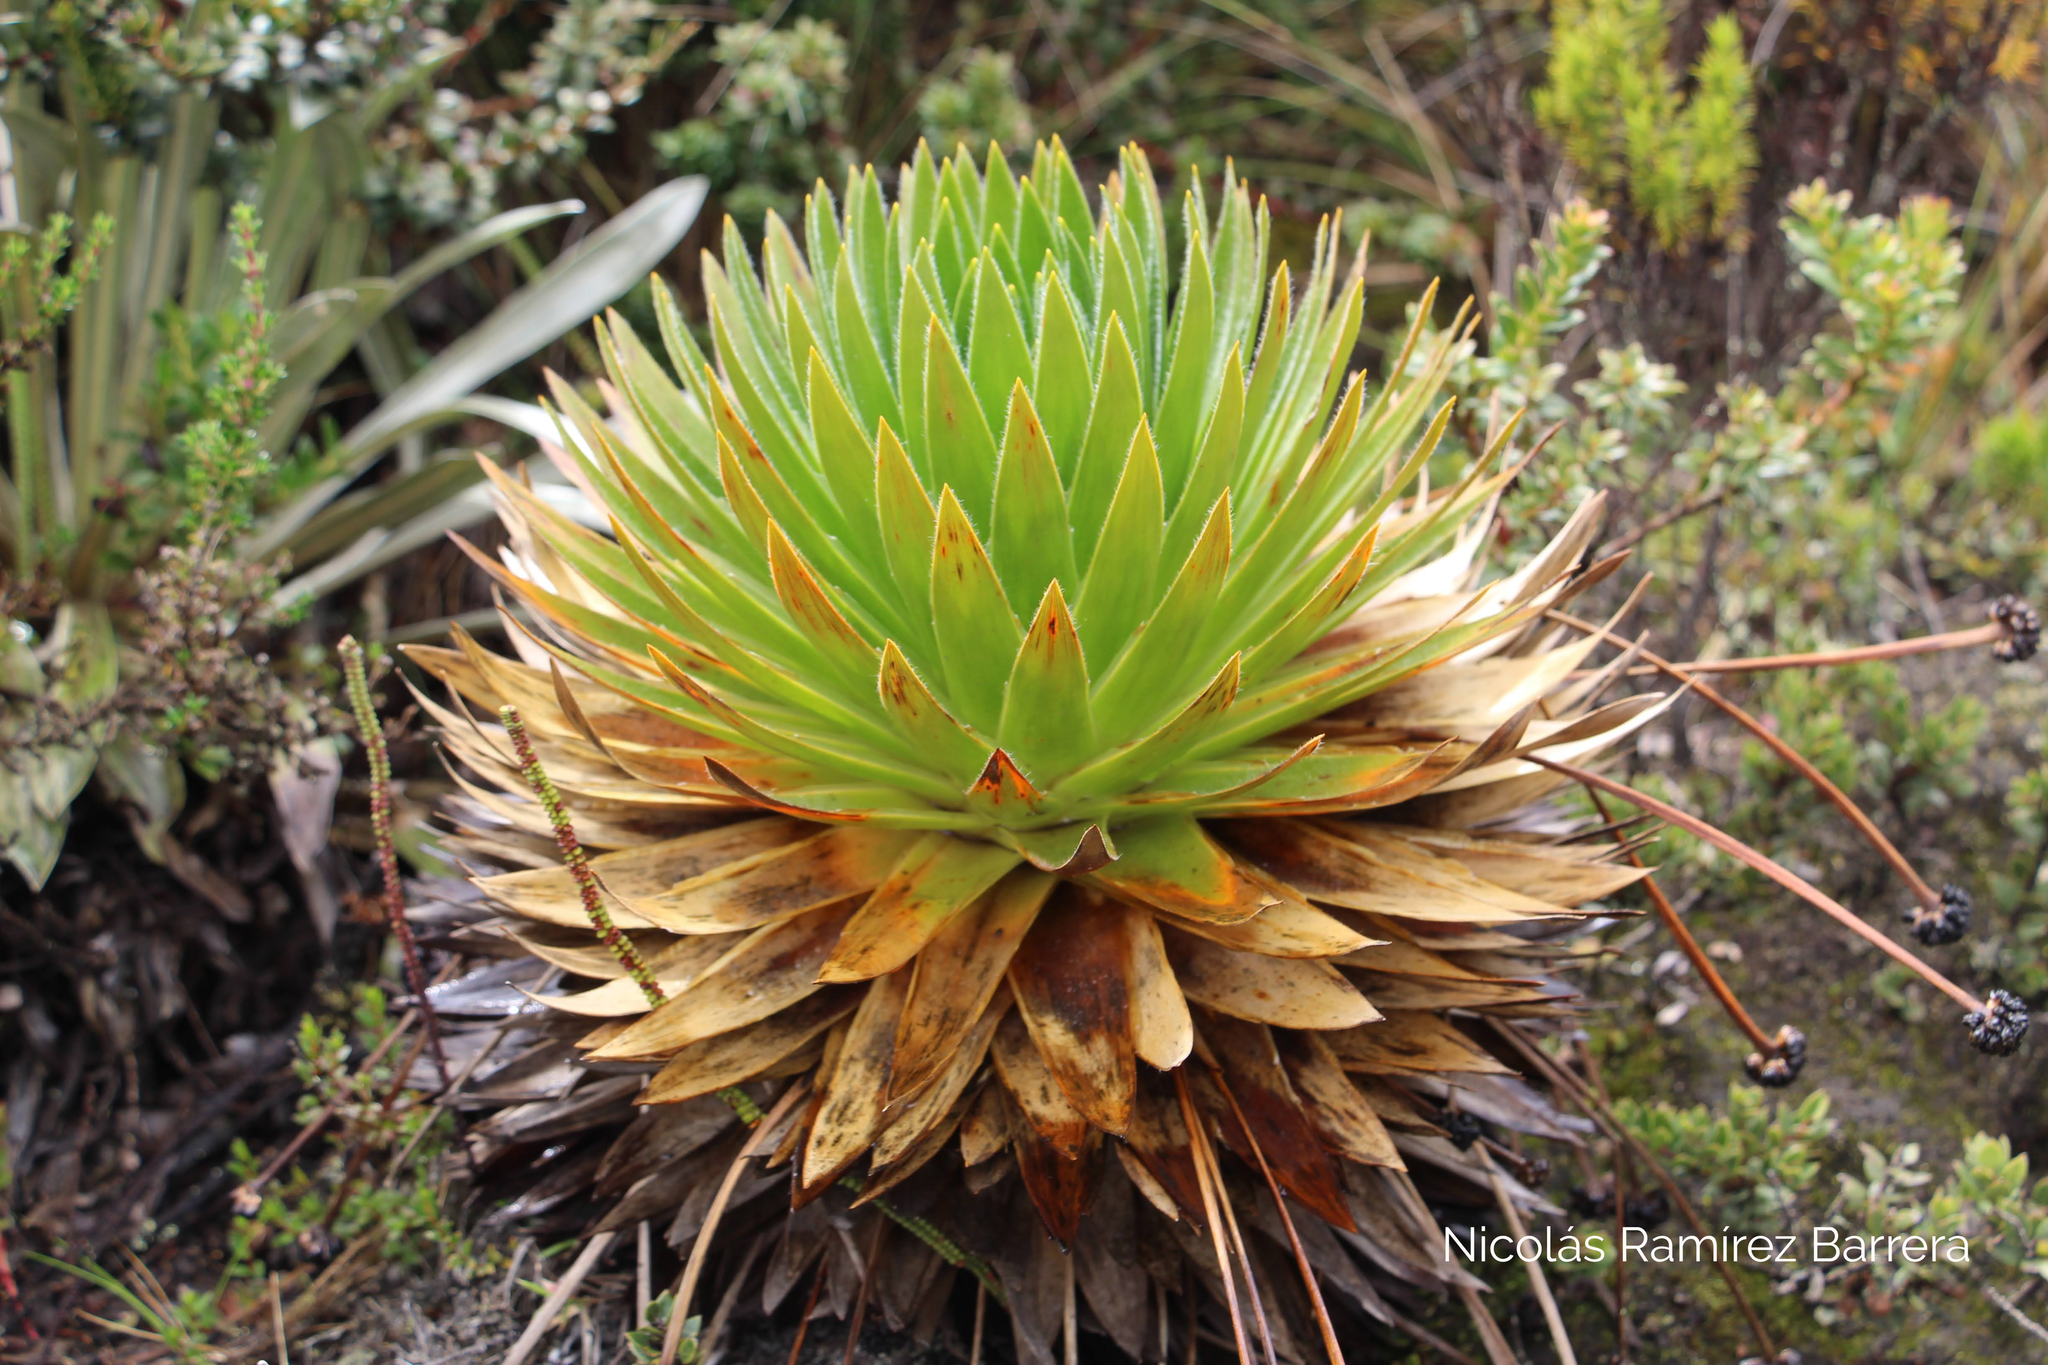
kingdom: Plantae
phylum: Tracheophyta
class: Liliopsida
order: Poales
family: Eriocaulaceae
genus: Paepalanthus
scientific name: Paepalanthus alpinus
